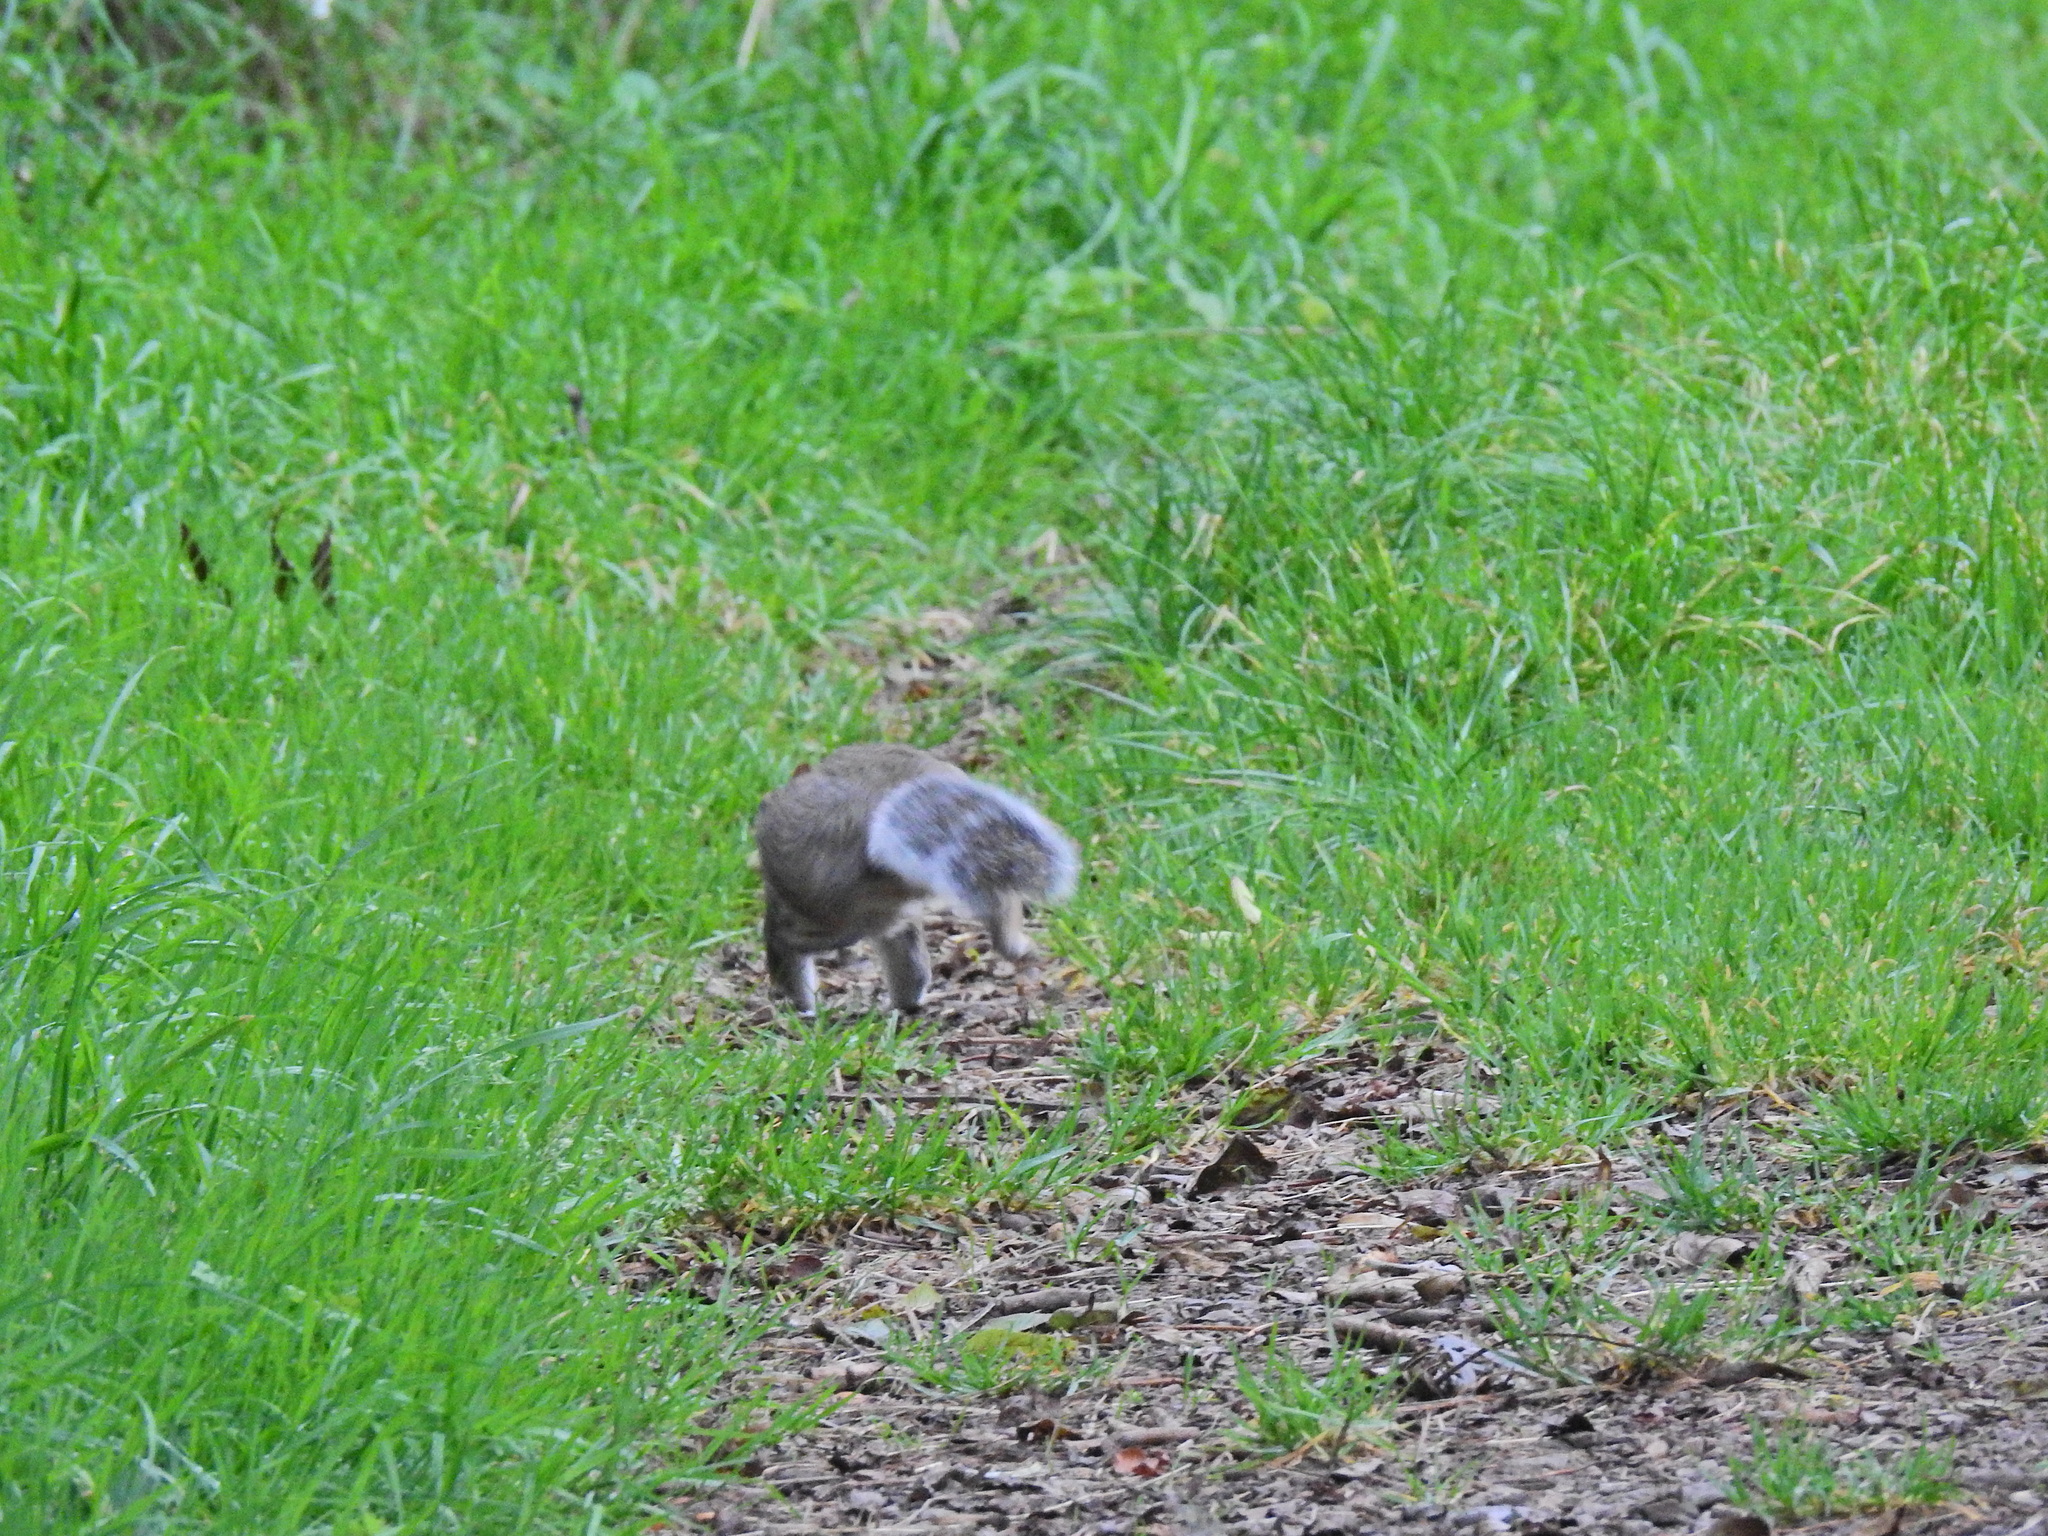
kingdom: Animalia
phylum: Chordata
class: Mammalia
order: Rodentia
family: Sciuridae
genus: Sciurus
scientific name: Sciurus carolinensis
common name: Eastern gray squirrel
